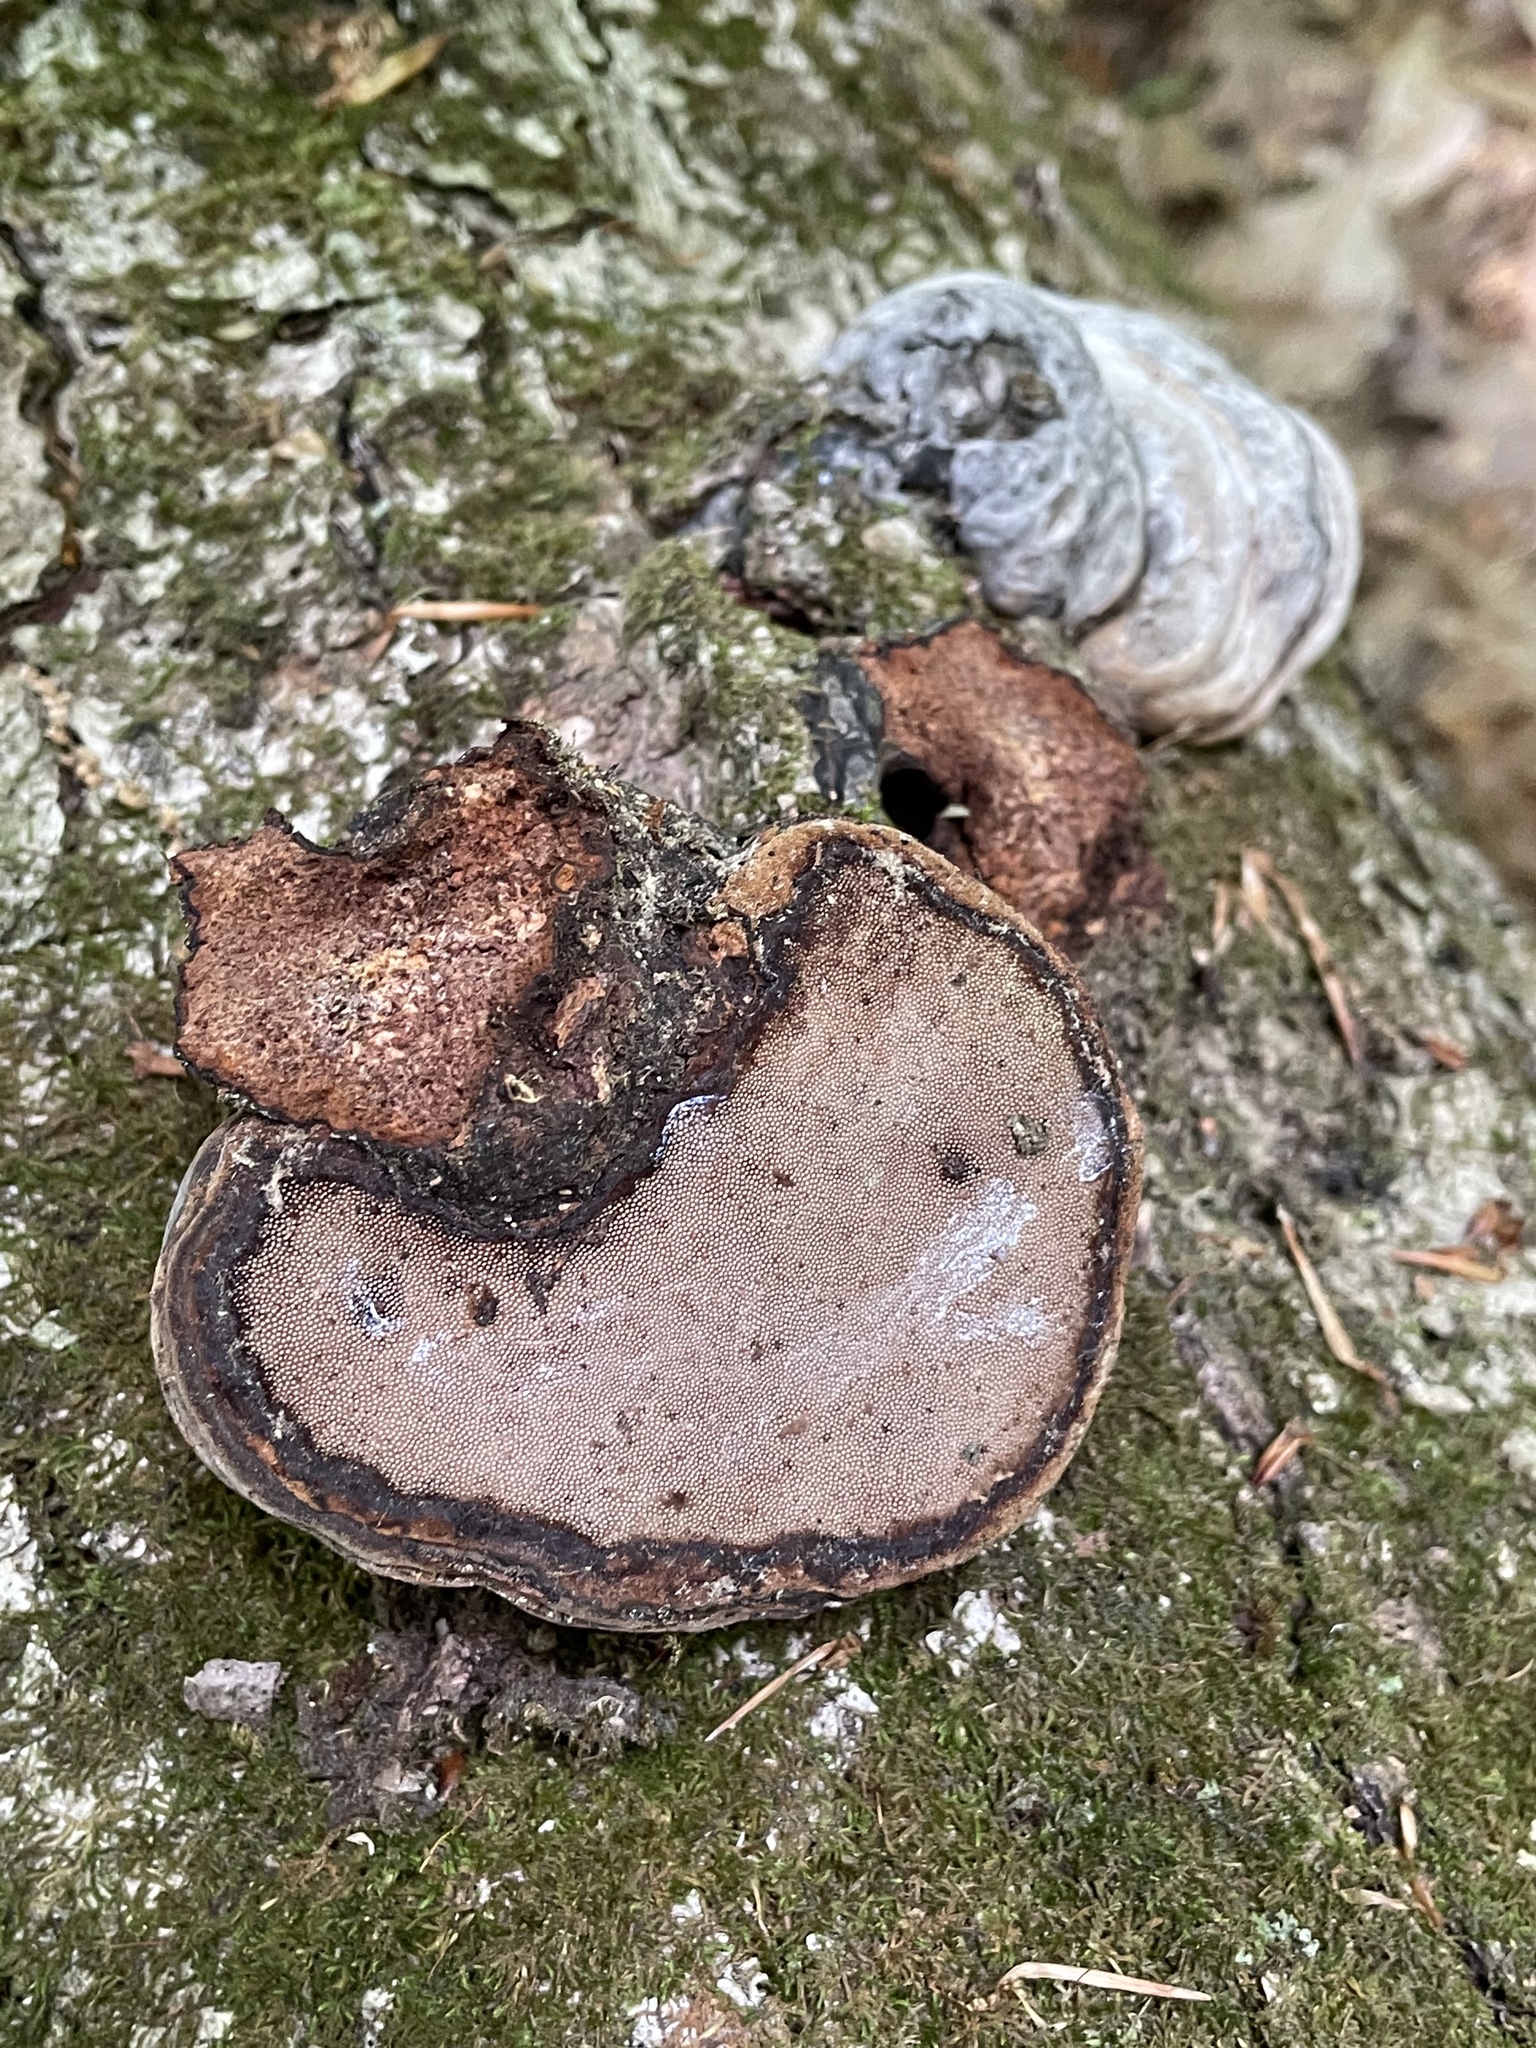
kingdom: Fungi
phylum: Basidiomycota
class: Agaricomycetes
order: Polyporales
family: Polyporaceae
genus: Fomes
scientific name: Fomes fomentarius
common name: Hoof fungus
